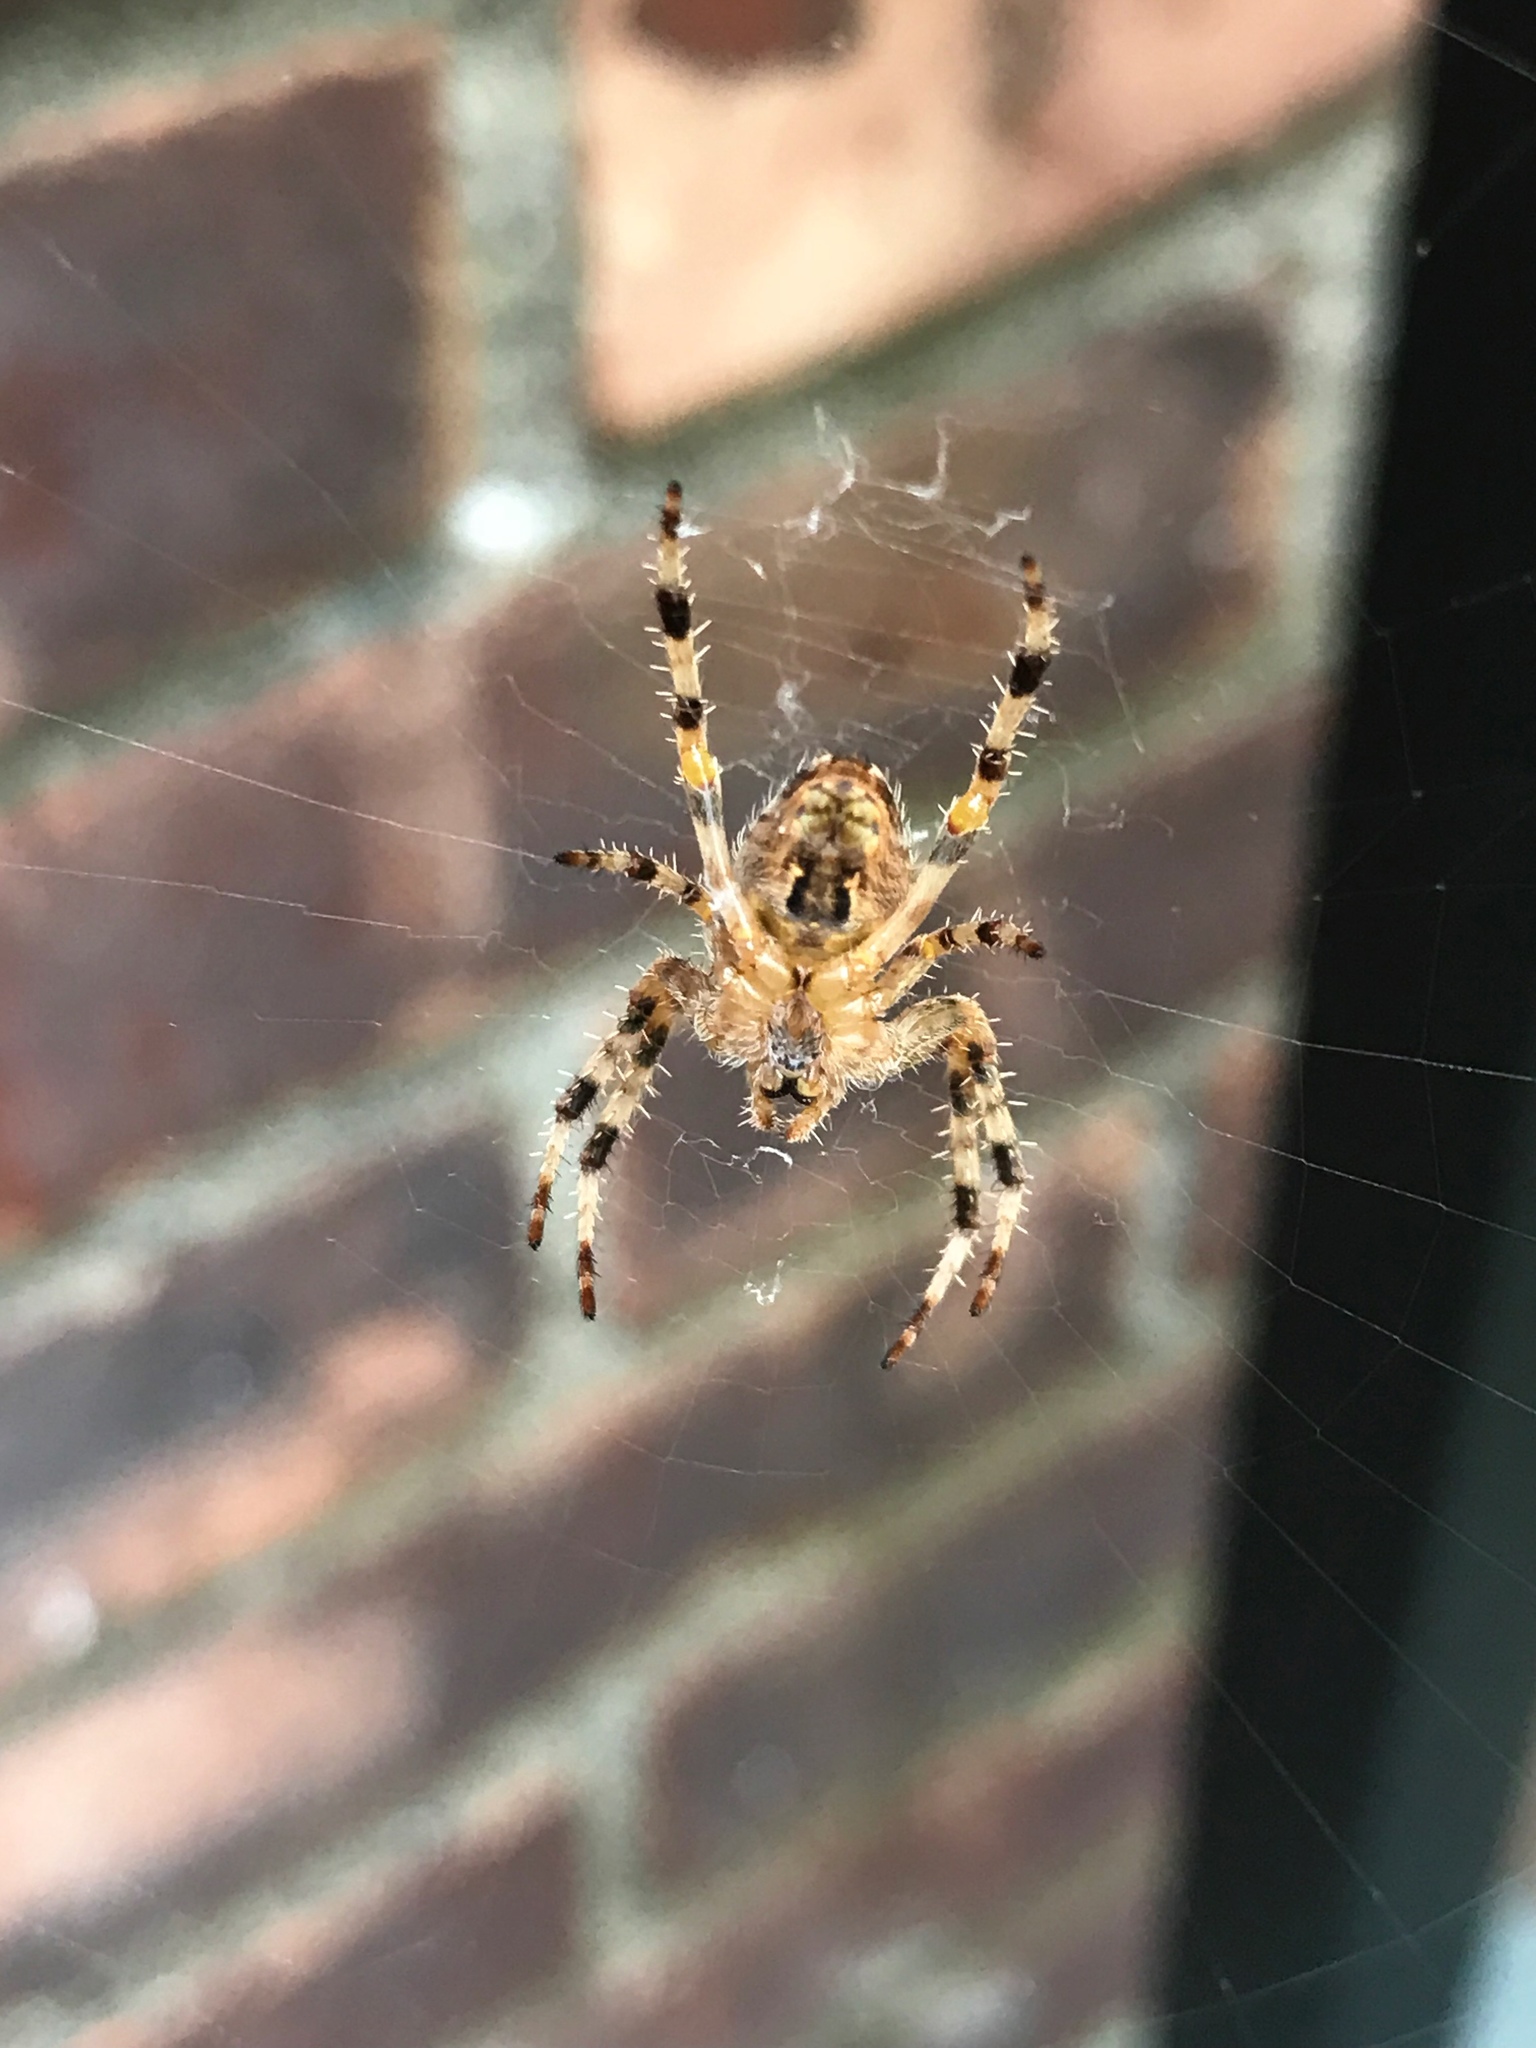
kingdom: Animalia
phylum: Arthropoda
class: Arachnida
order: Araneae
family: Araneidae
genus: Araneus
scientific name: Araneus diadematus
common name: Cross orbweaver
